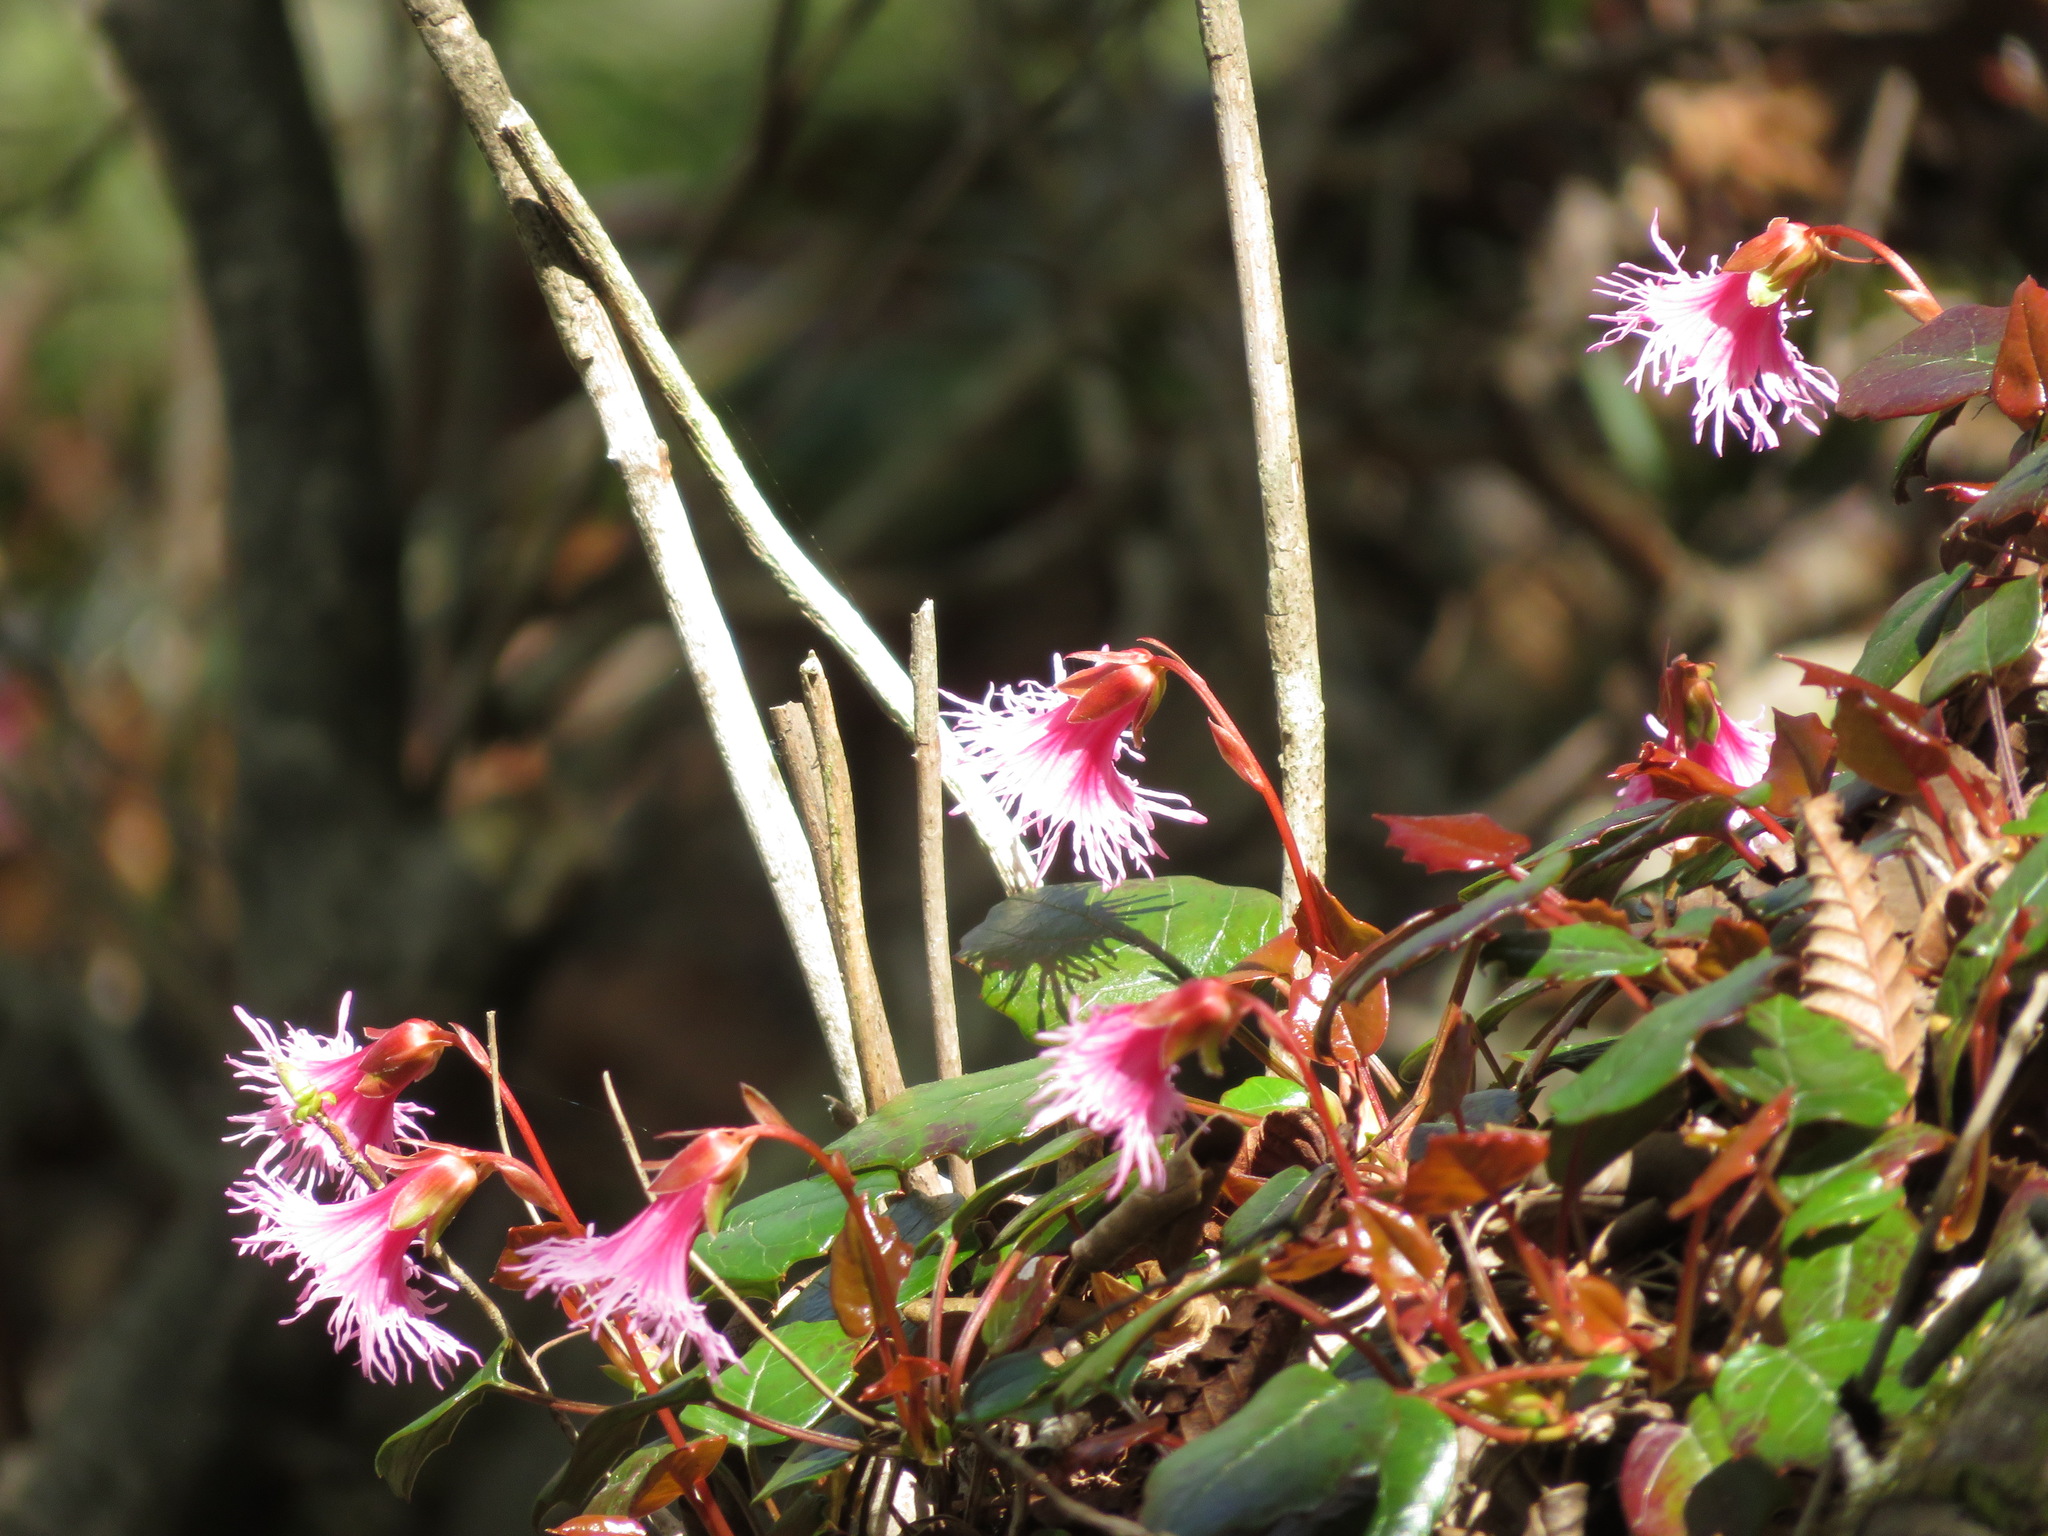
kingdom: Plantae
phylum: Tracheophyta
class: Magnoliopsida
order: Ericales
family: Diapensiaceae
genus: Schizocodon
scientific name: Schizocodon soldanelloides
